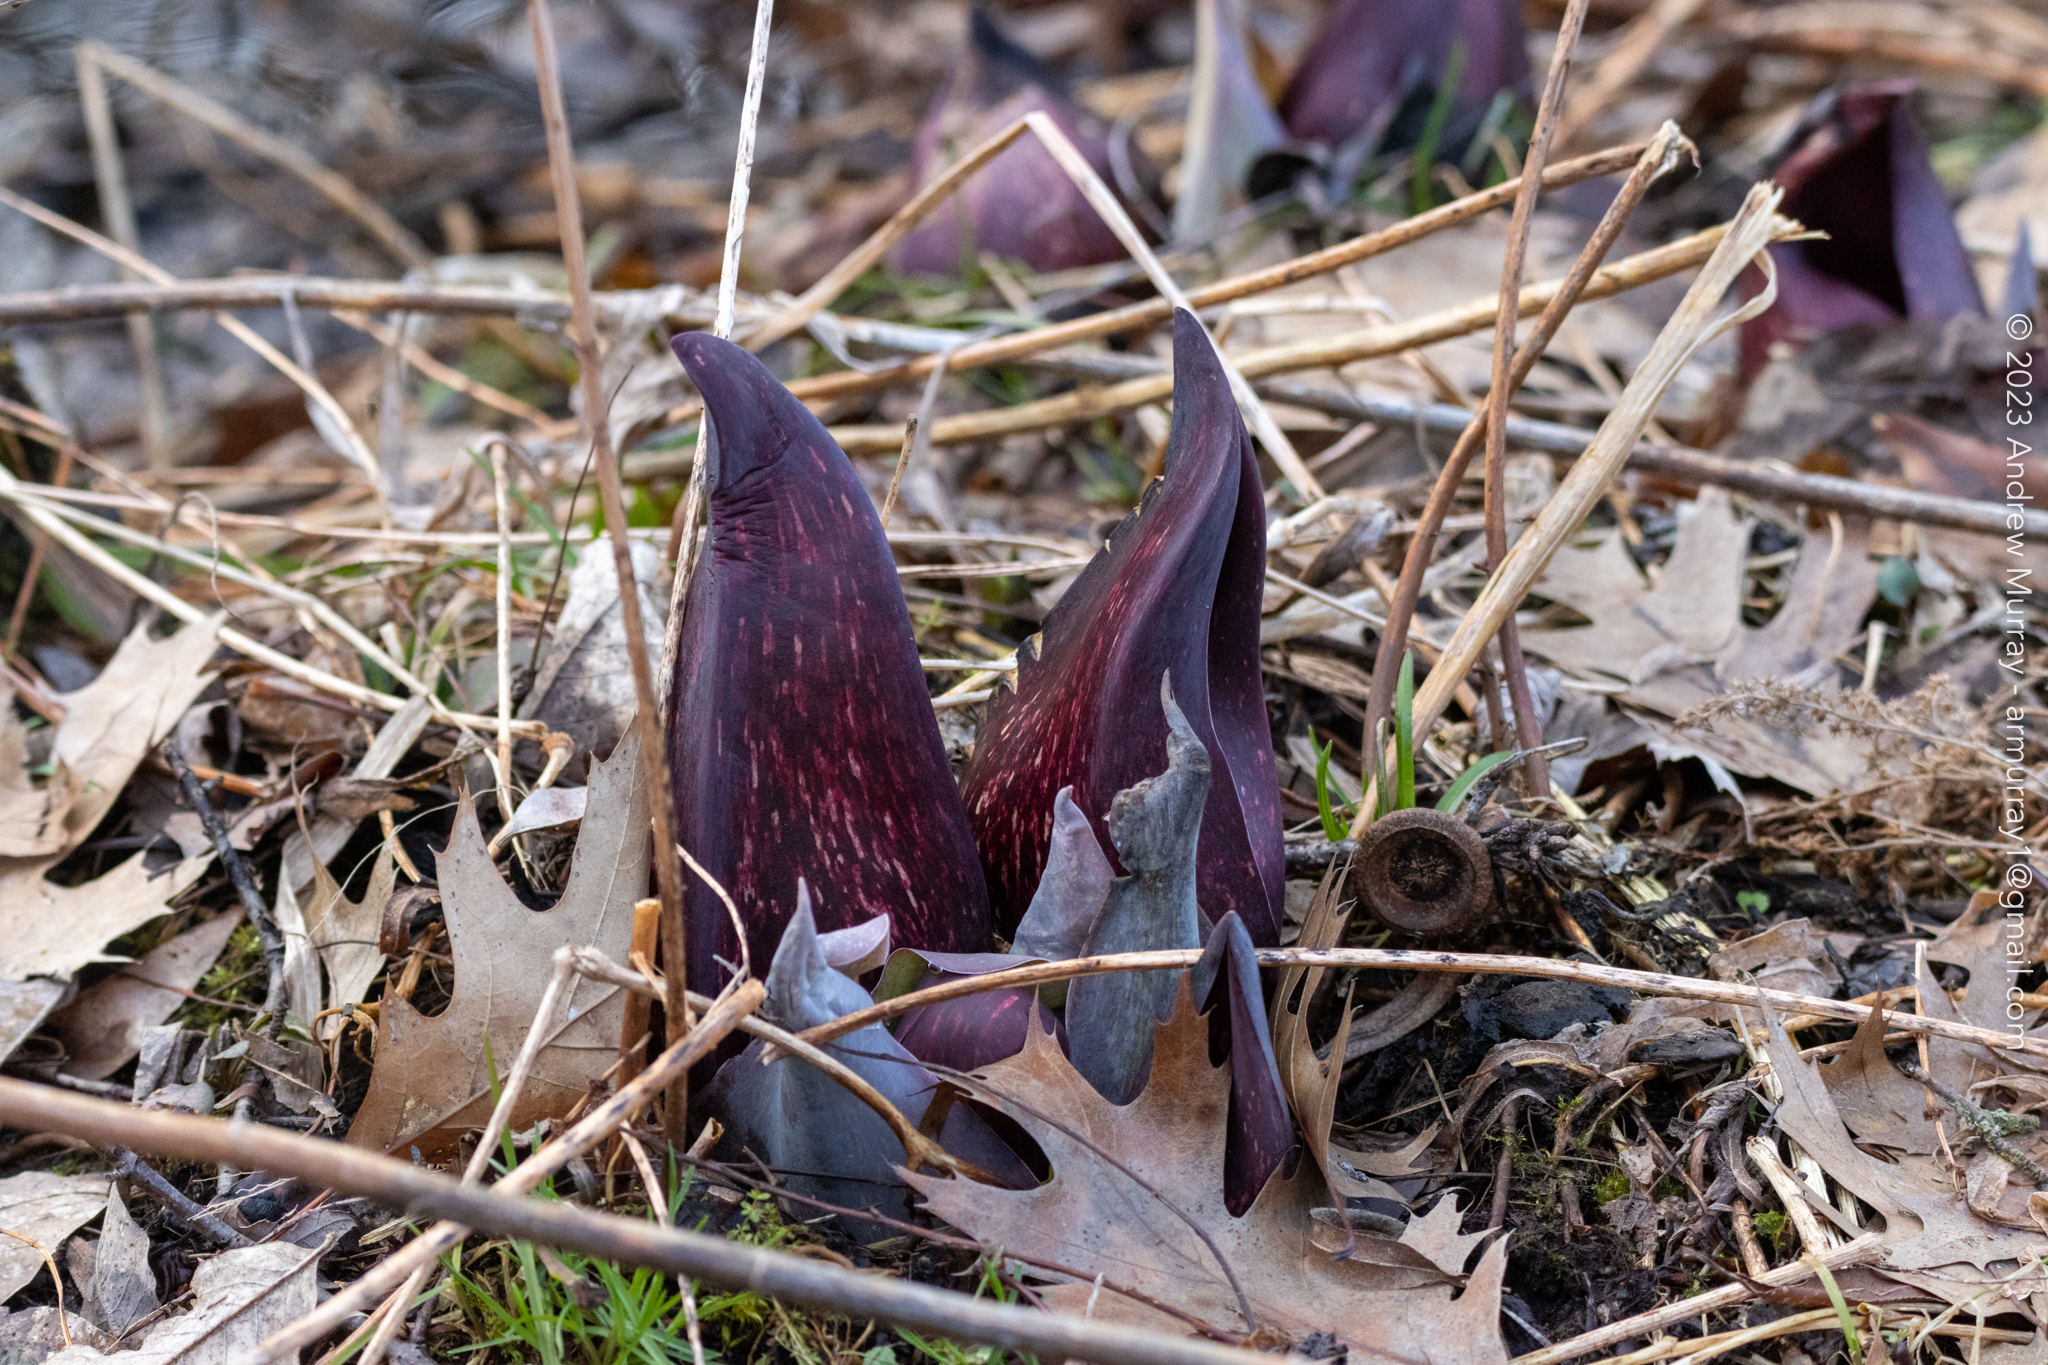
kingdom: Plantae
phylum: Tracheophyta
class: Liliopsida
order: Alismatales
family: Araceae
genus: Symplocarpus
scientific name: Symplocarpus foetidus
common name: Eastern skunk cabbage
